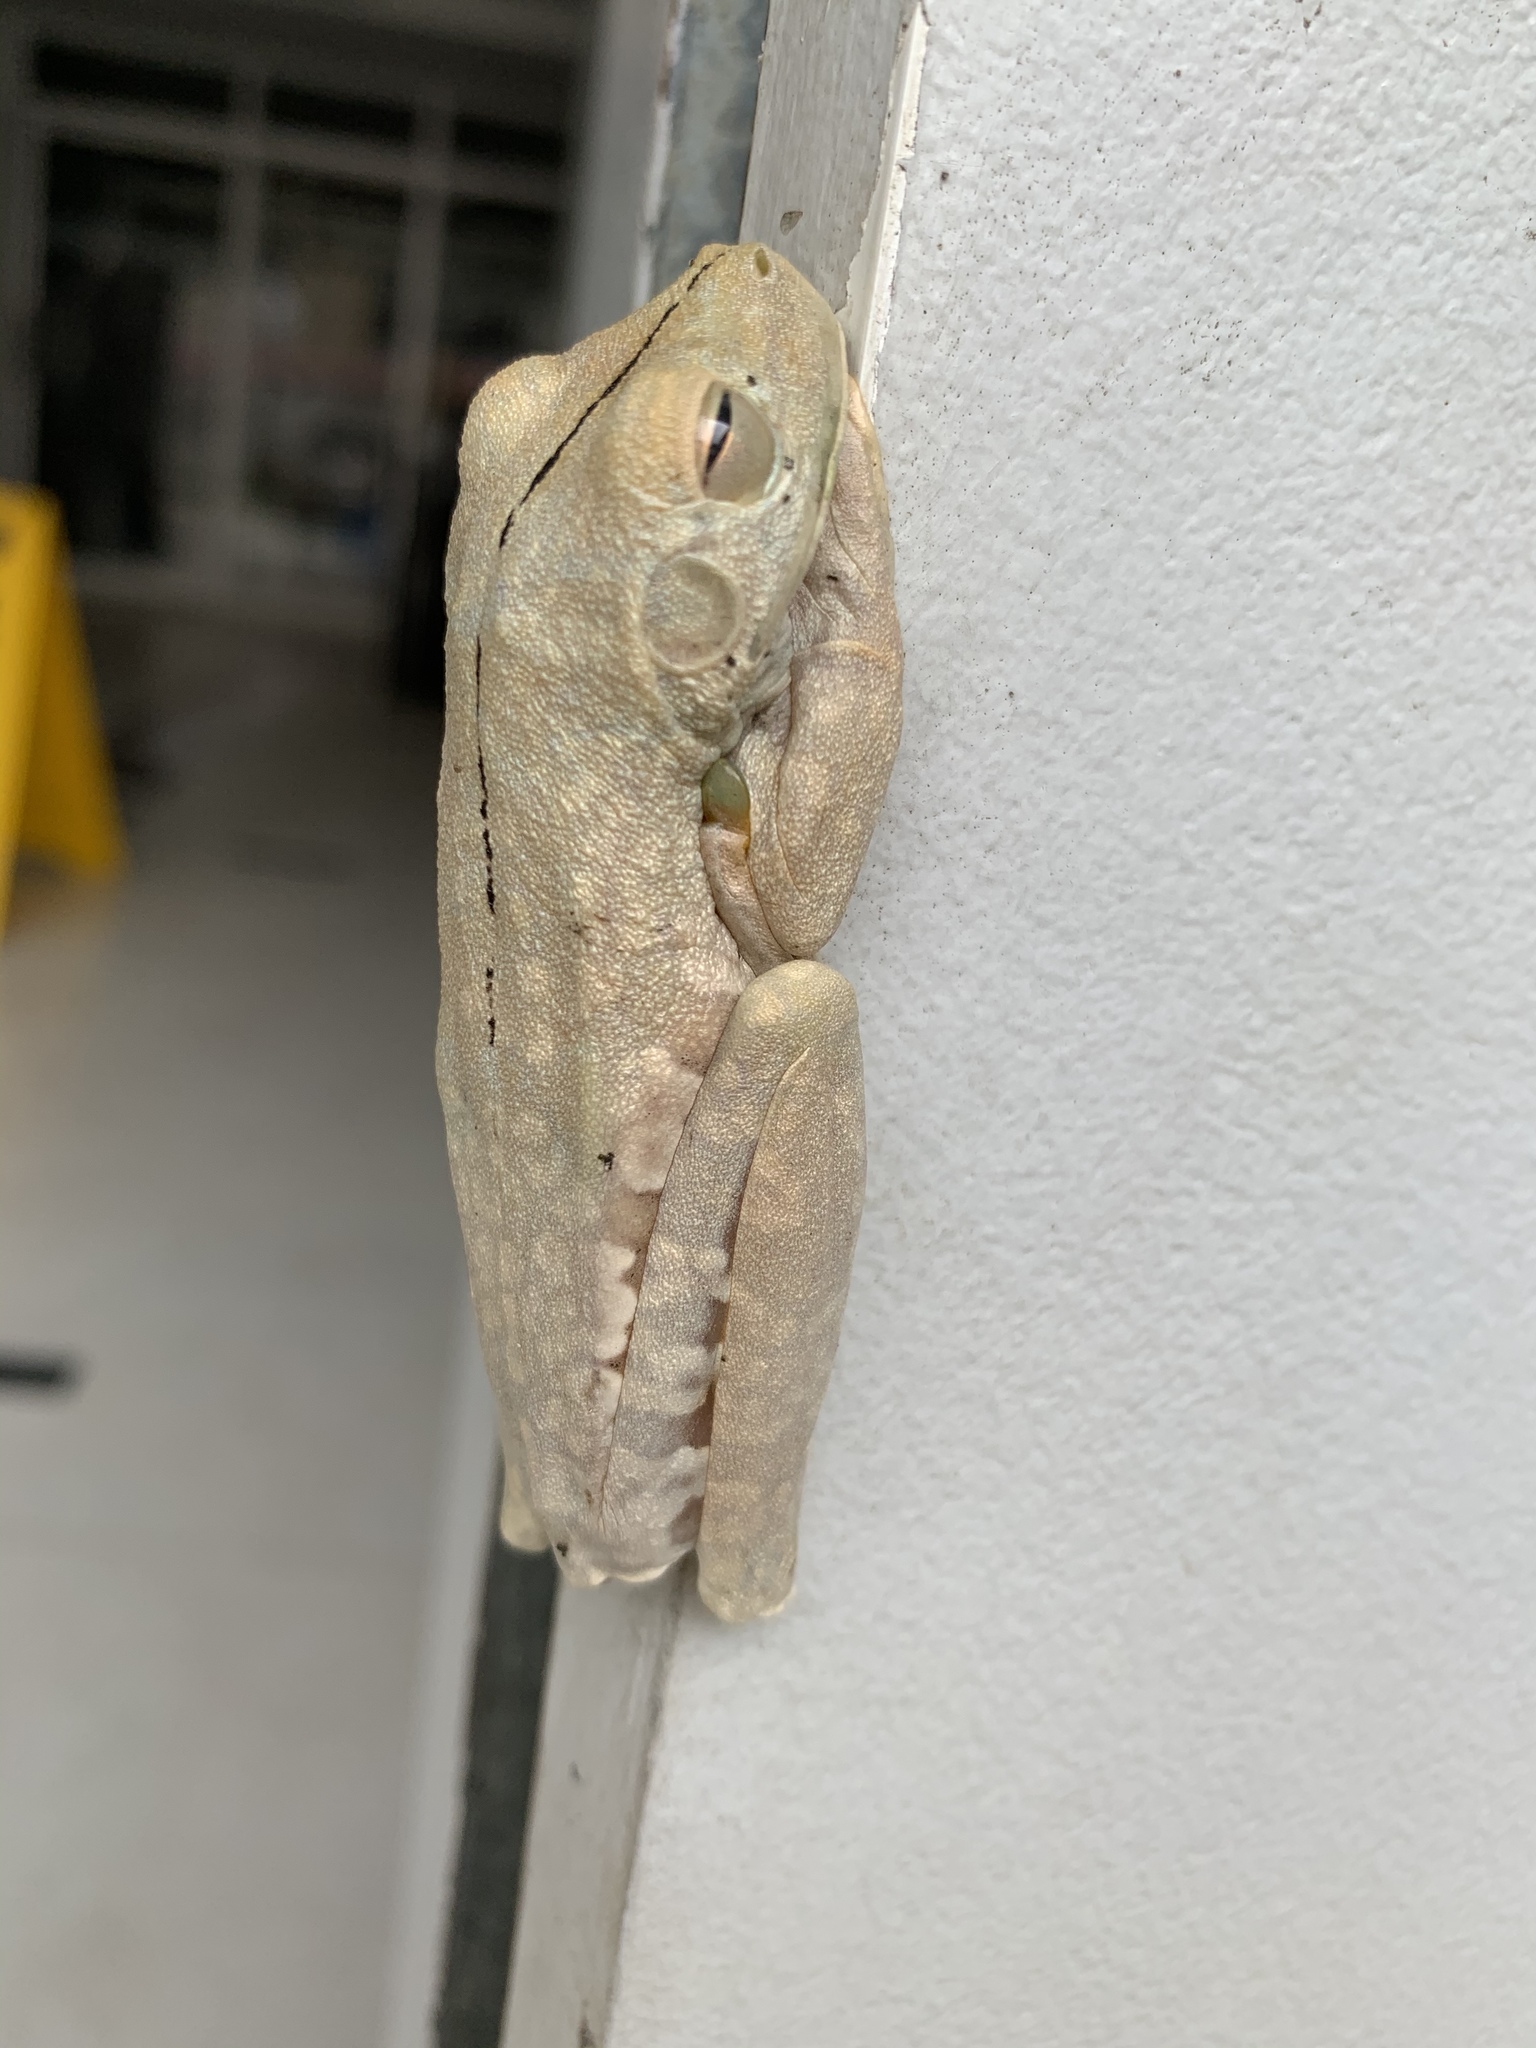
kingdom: Animalia
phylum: Chordata
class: Amphibia
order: Anura
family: Hylidae
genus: Boana
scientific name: Boana rosenbergi
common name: Rosenberg´s gladiator treefrog
